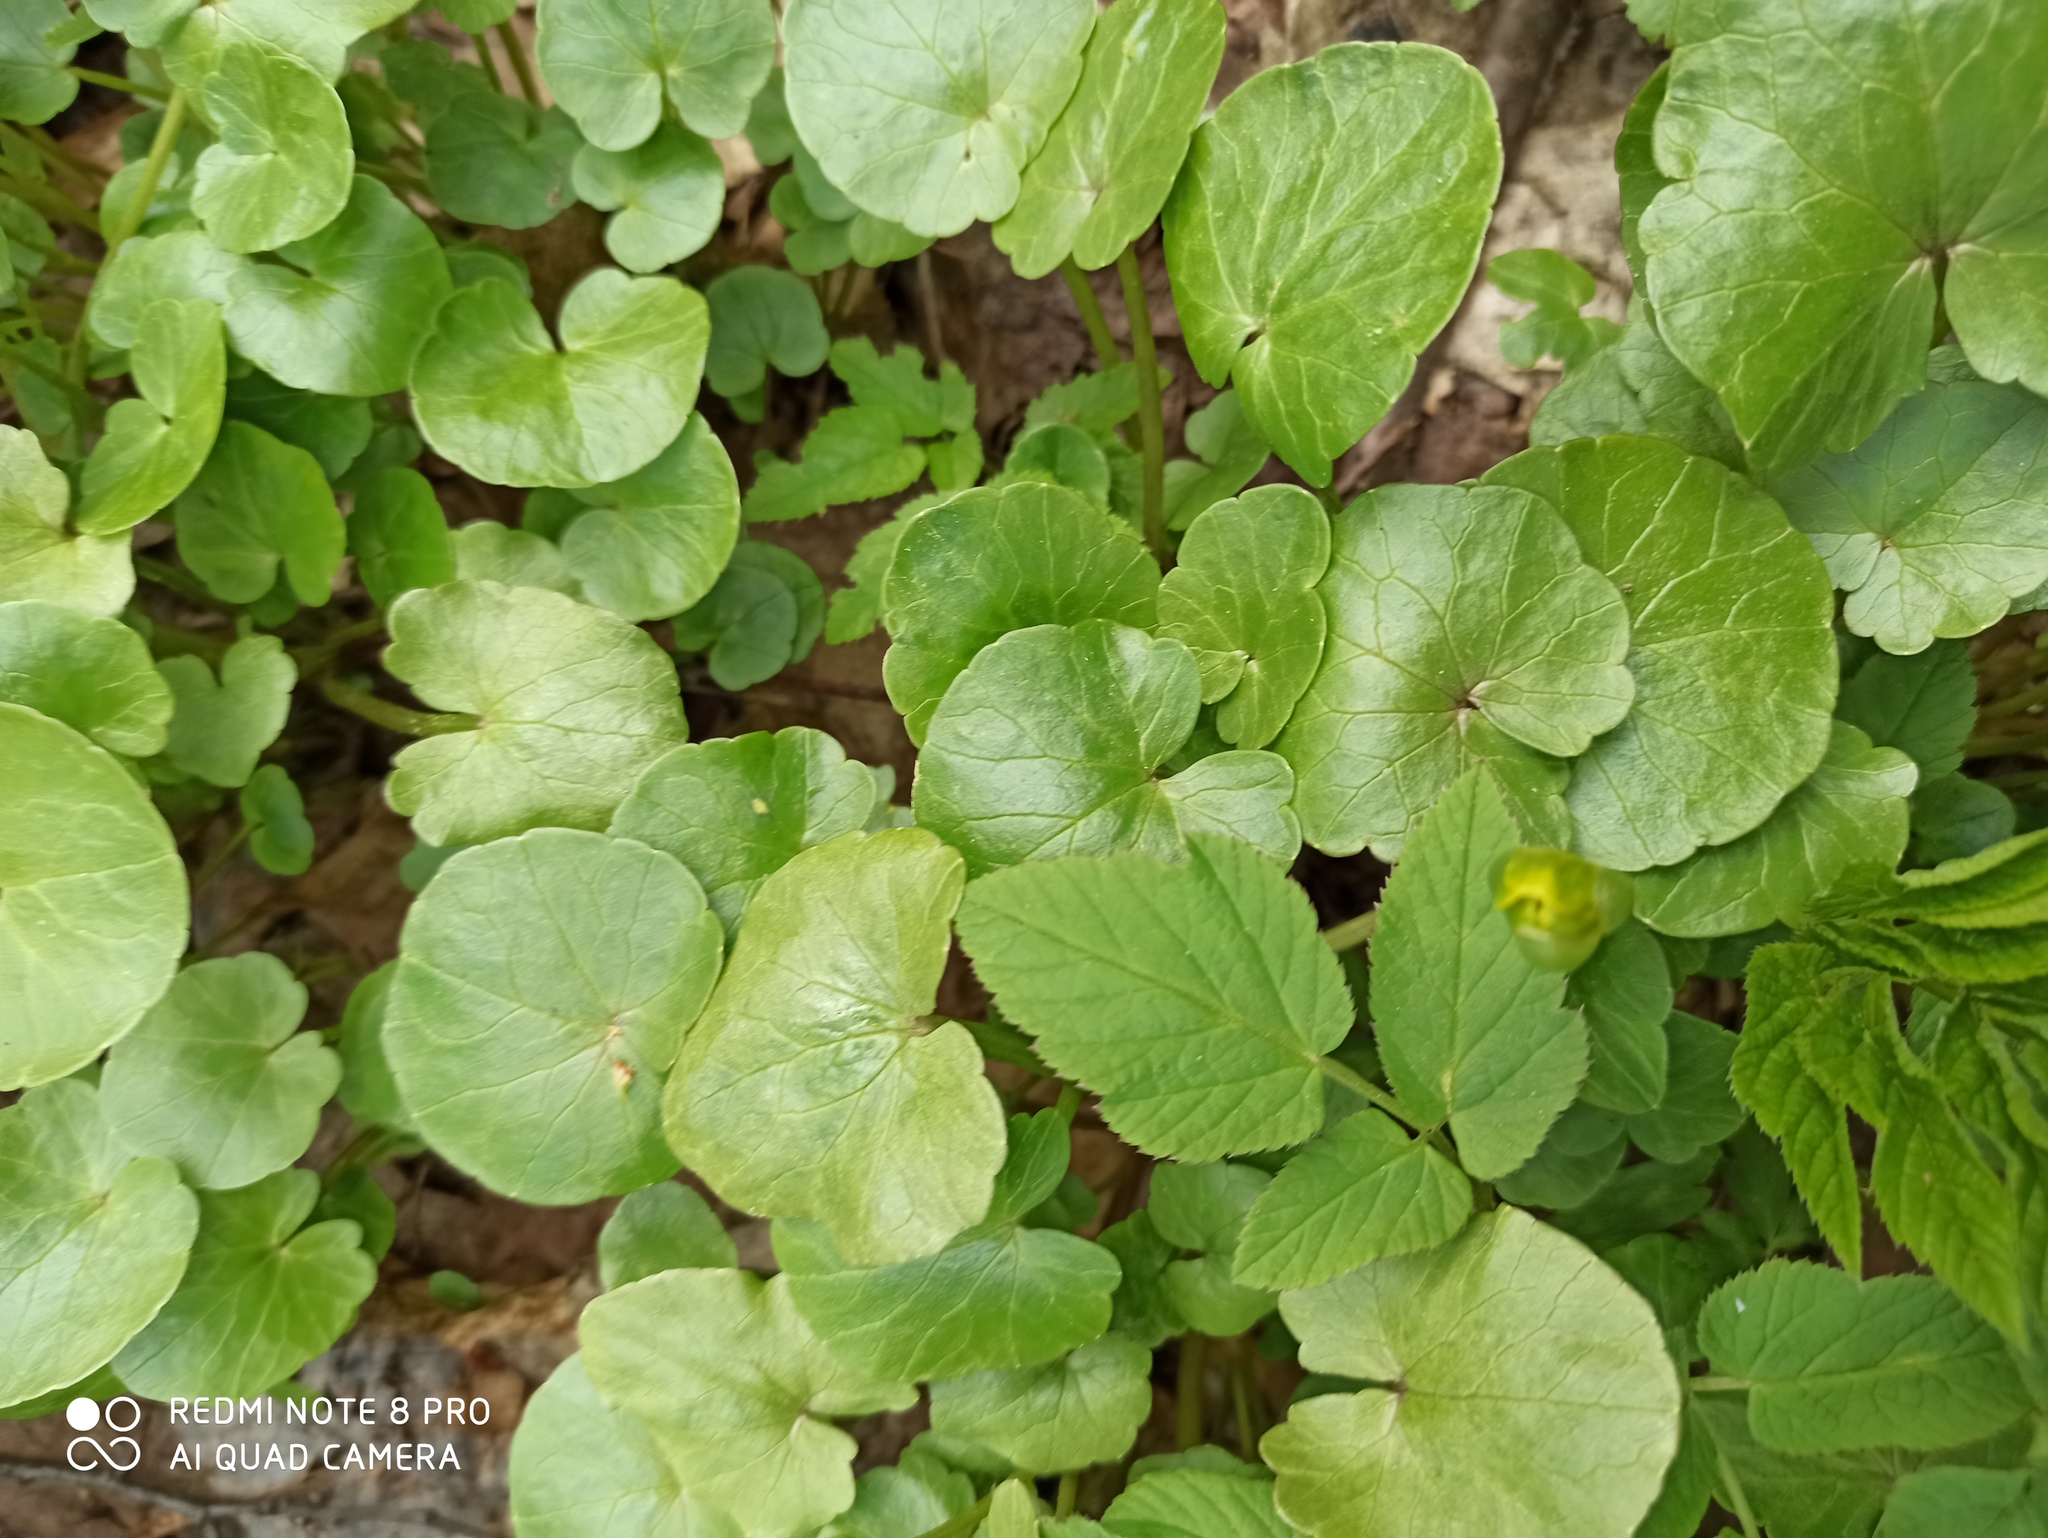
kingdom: Plantae
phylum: Tracheophyta
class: Magnoliopsida
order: Ranunculales
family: Ranunculaceae
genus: Ficaria
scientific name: Ficaria verna
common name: Lesser celandine
